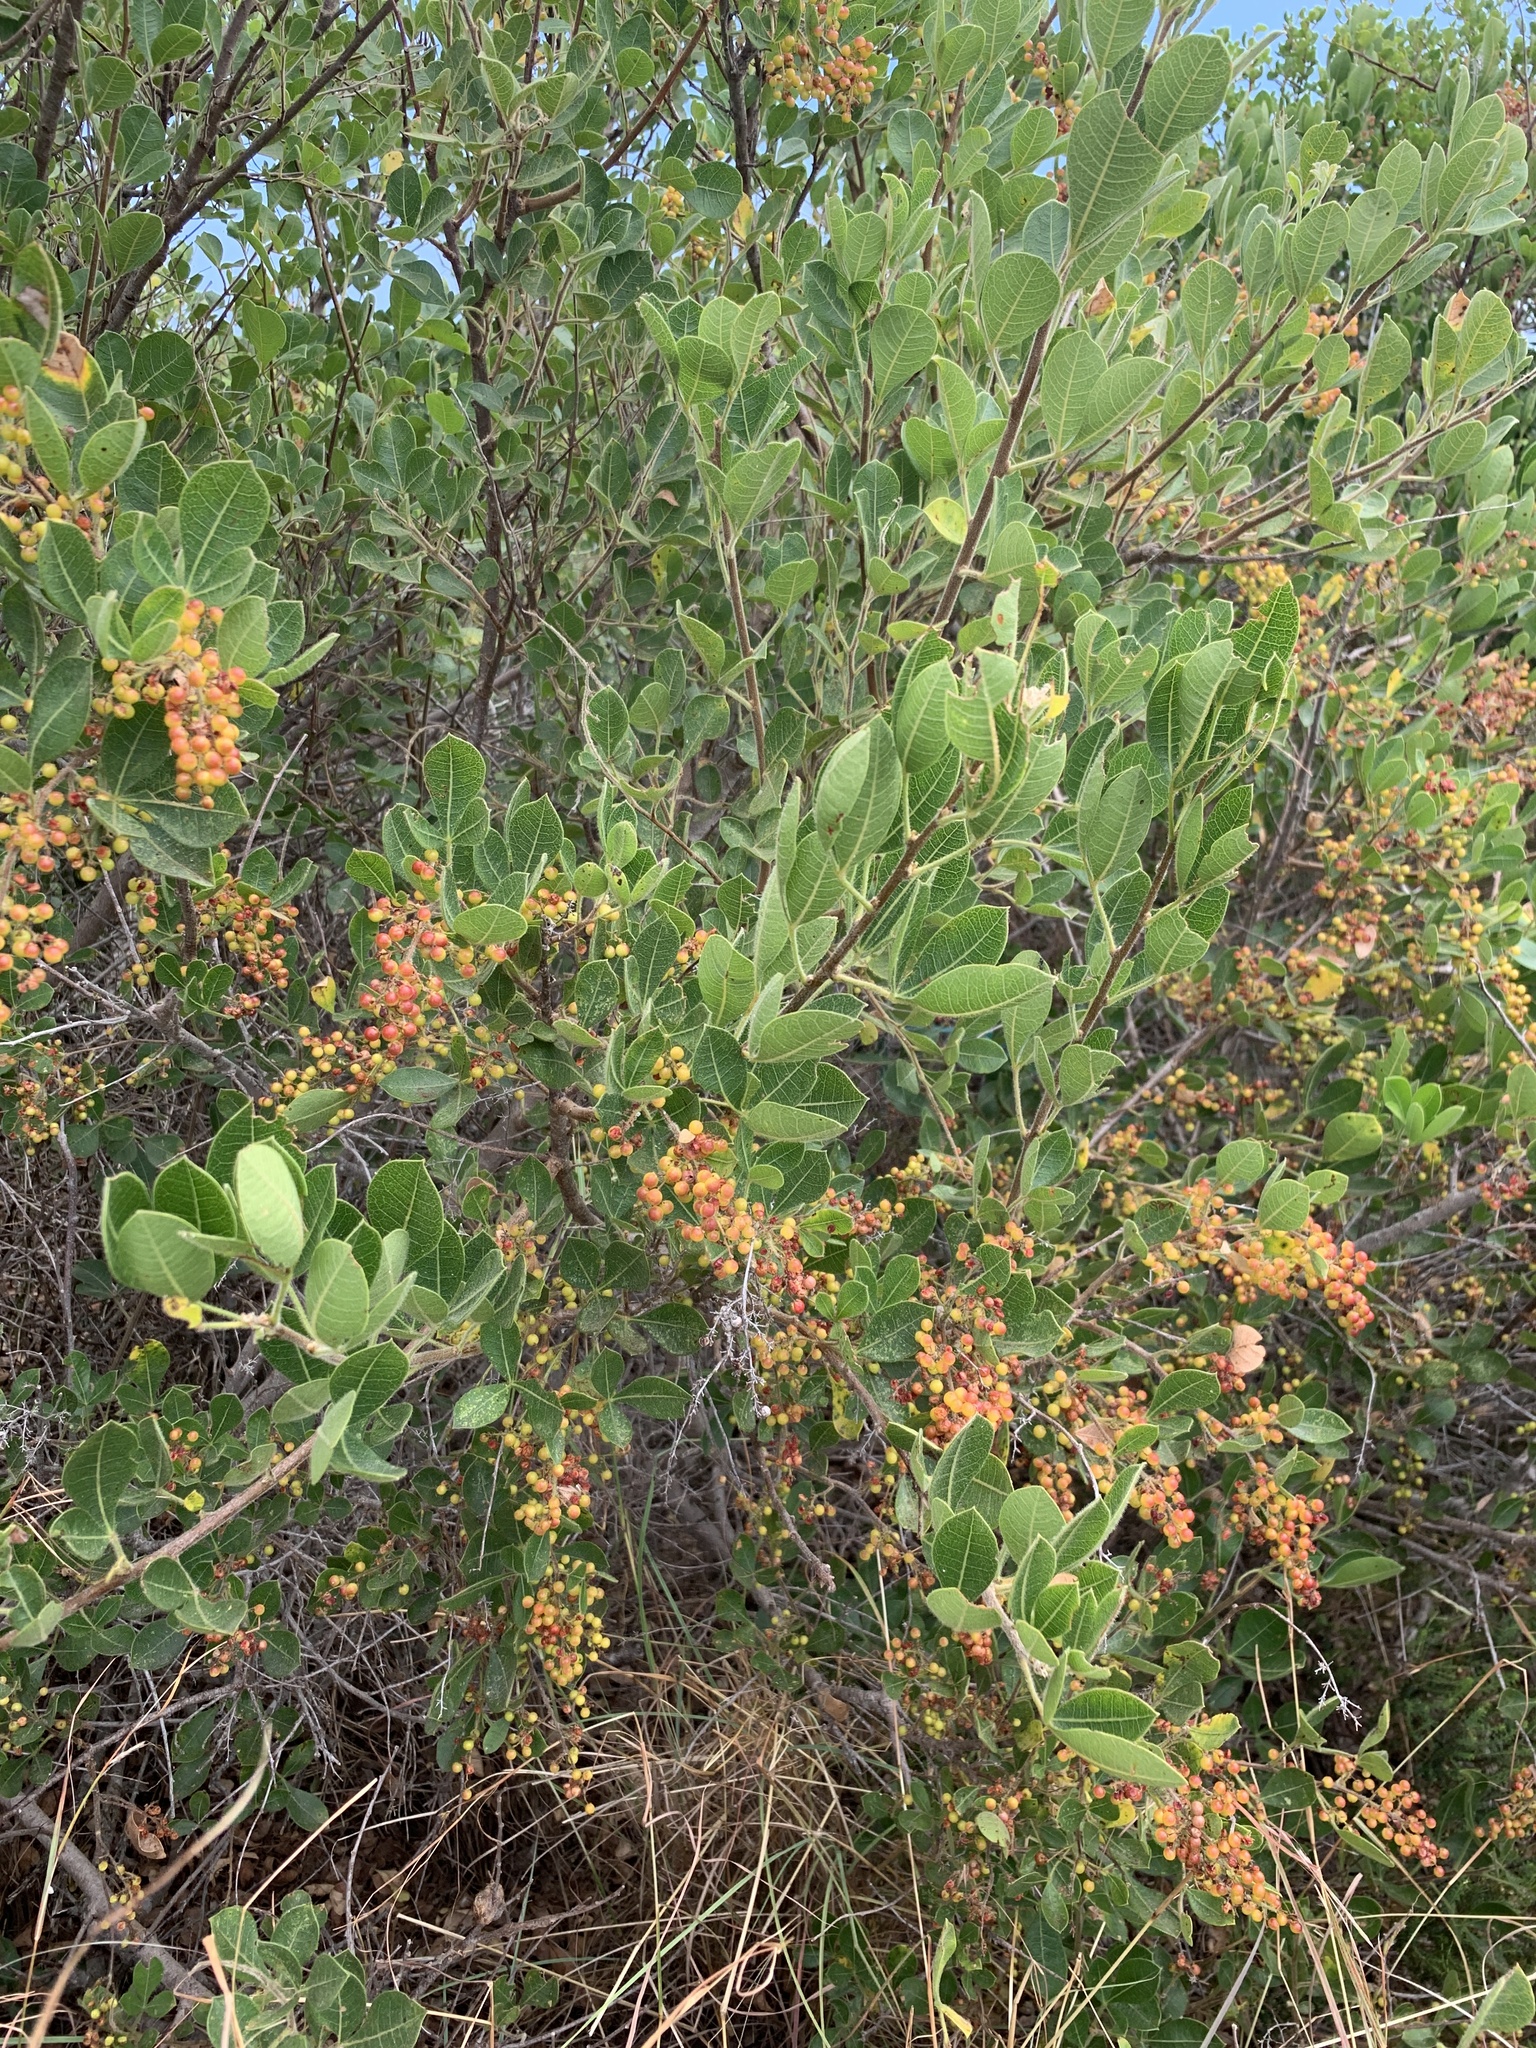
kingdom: Plantae
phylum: Tracheophyta
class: Magnoliopsida
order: Sapindales
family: Anacardiaceae
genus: Searsia
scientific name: Searsia laevigata
